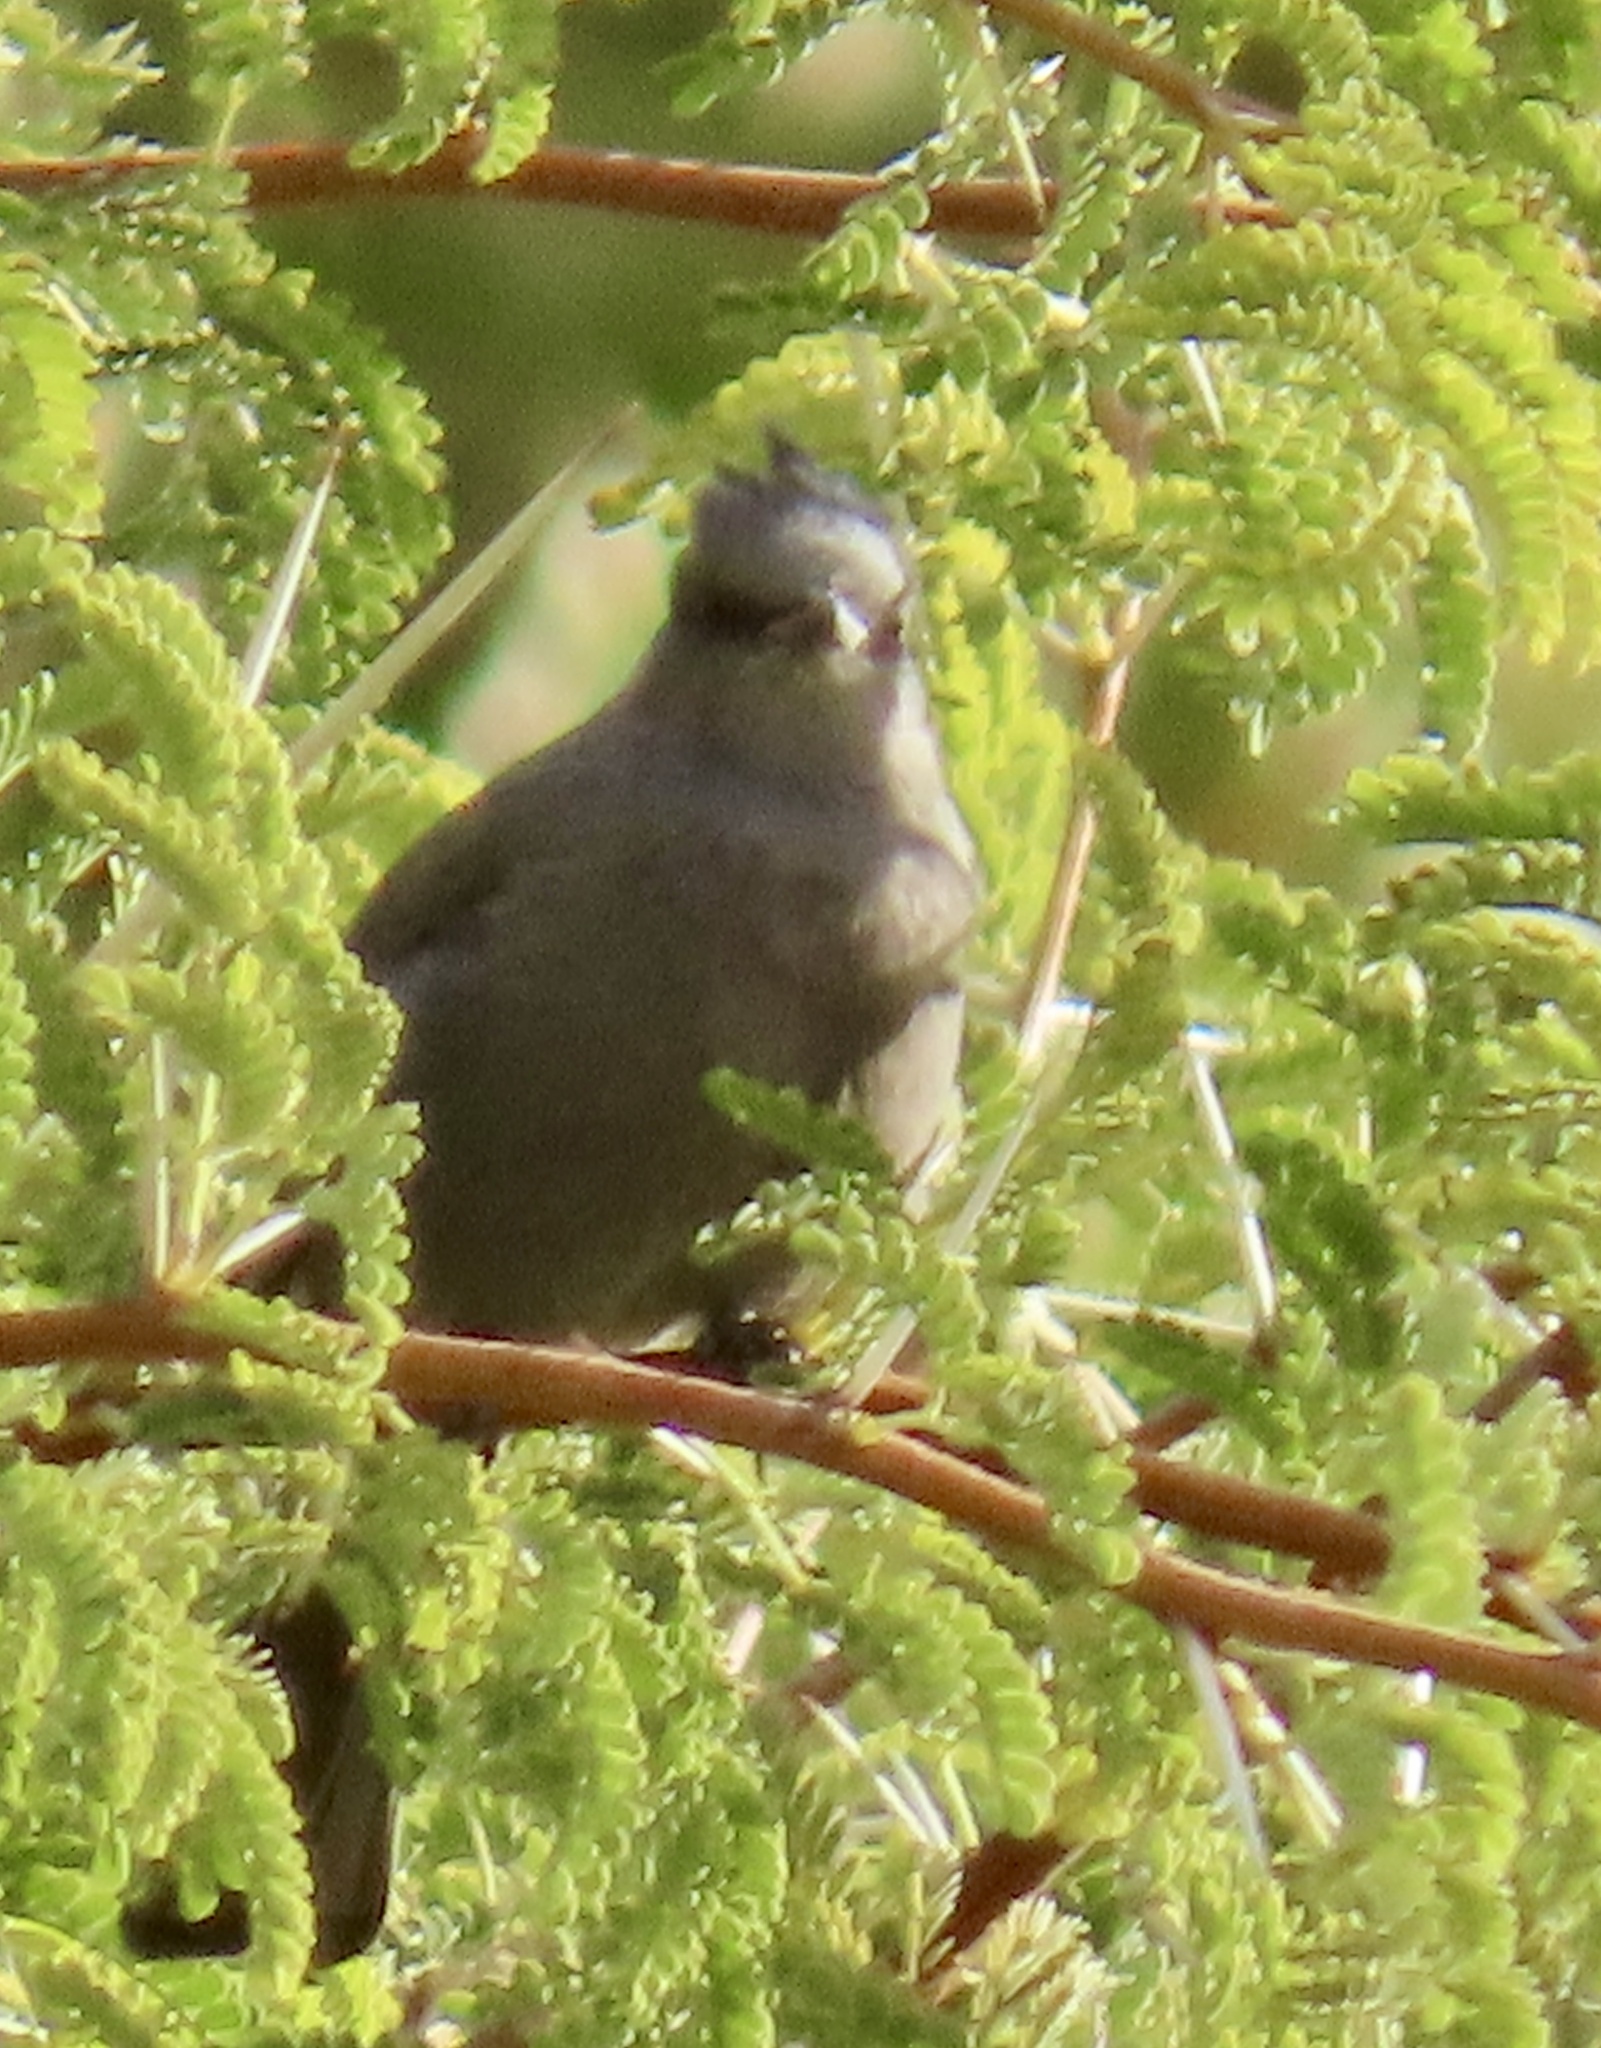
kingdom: Animalia
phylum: Chordata
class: Aves
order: Passeriformes
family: Ptilogonatidae
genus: Phainopepla
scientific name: Phainopepla nitens
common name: Phainopepla
